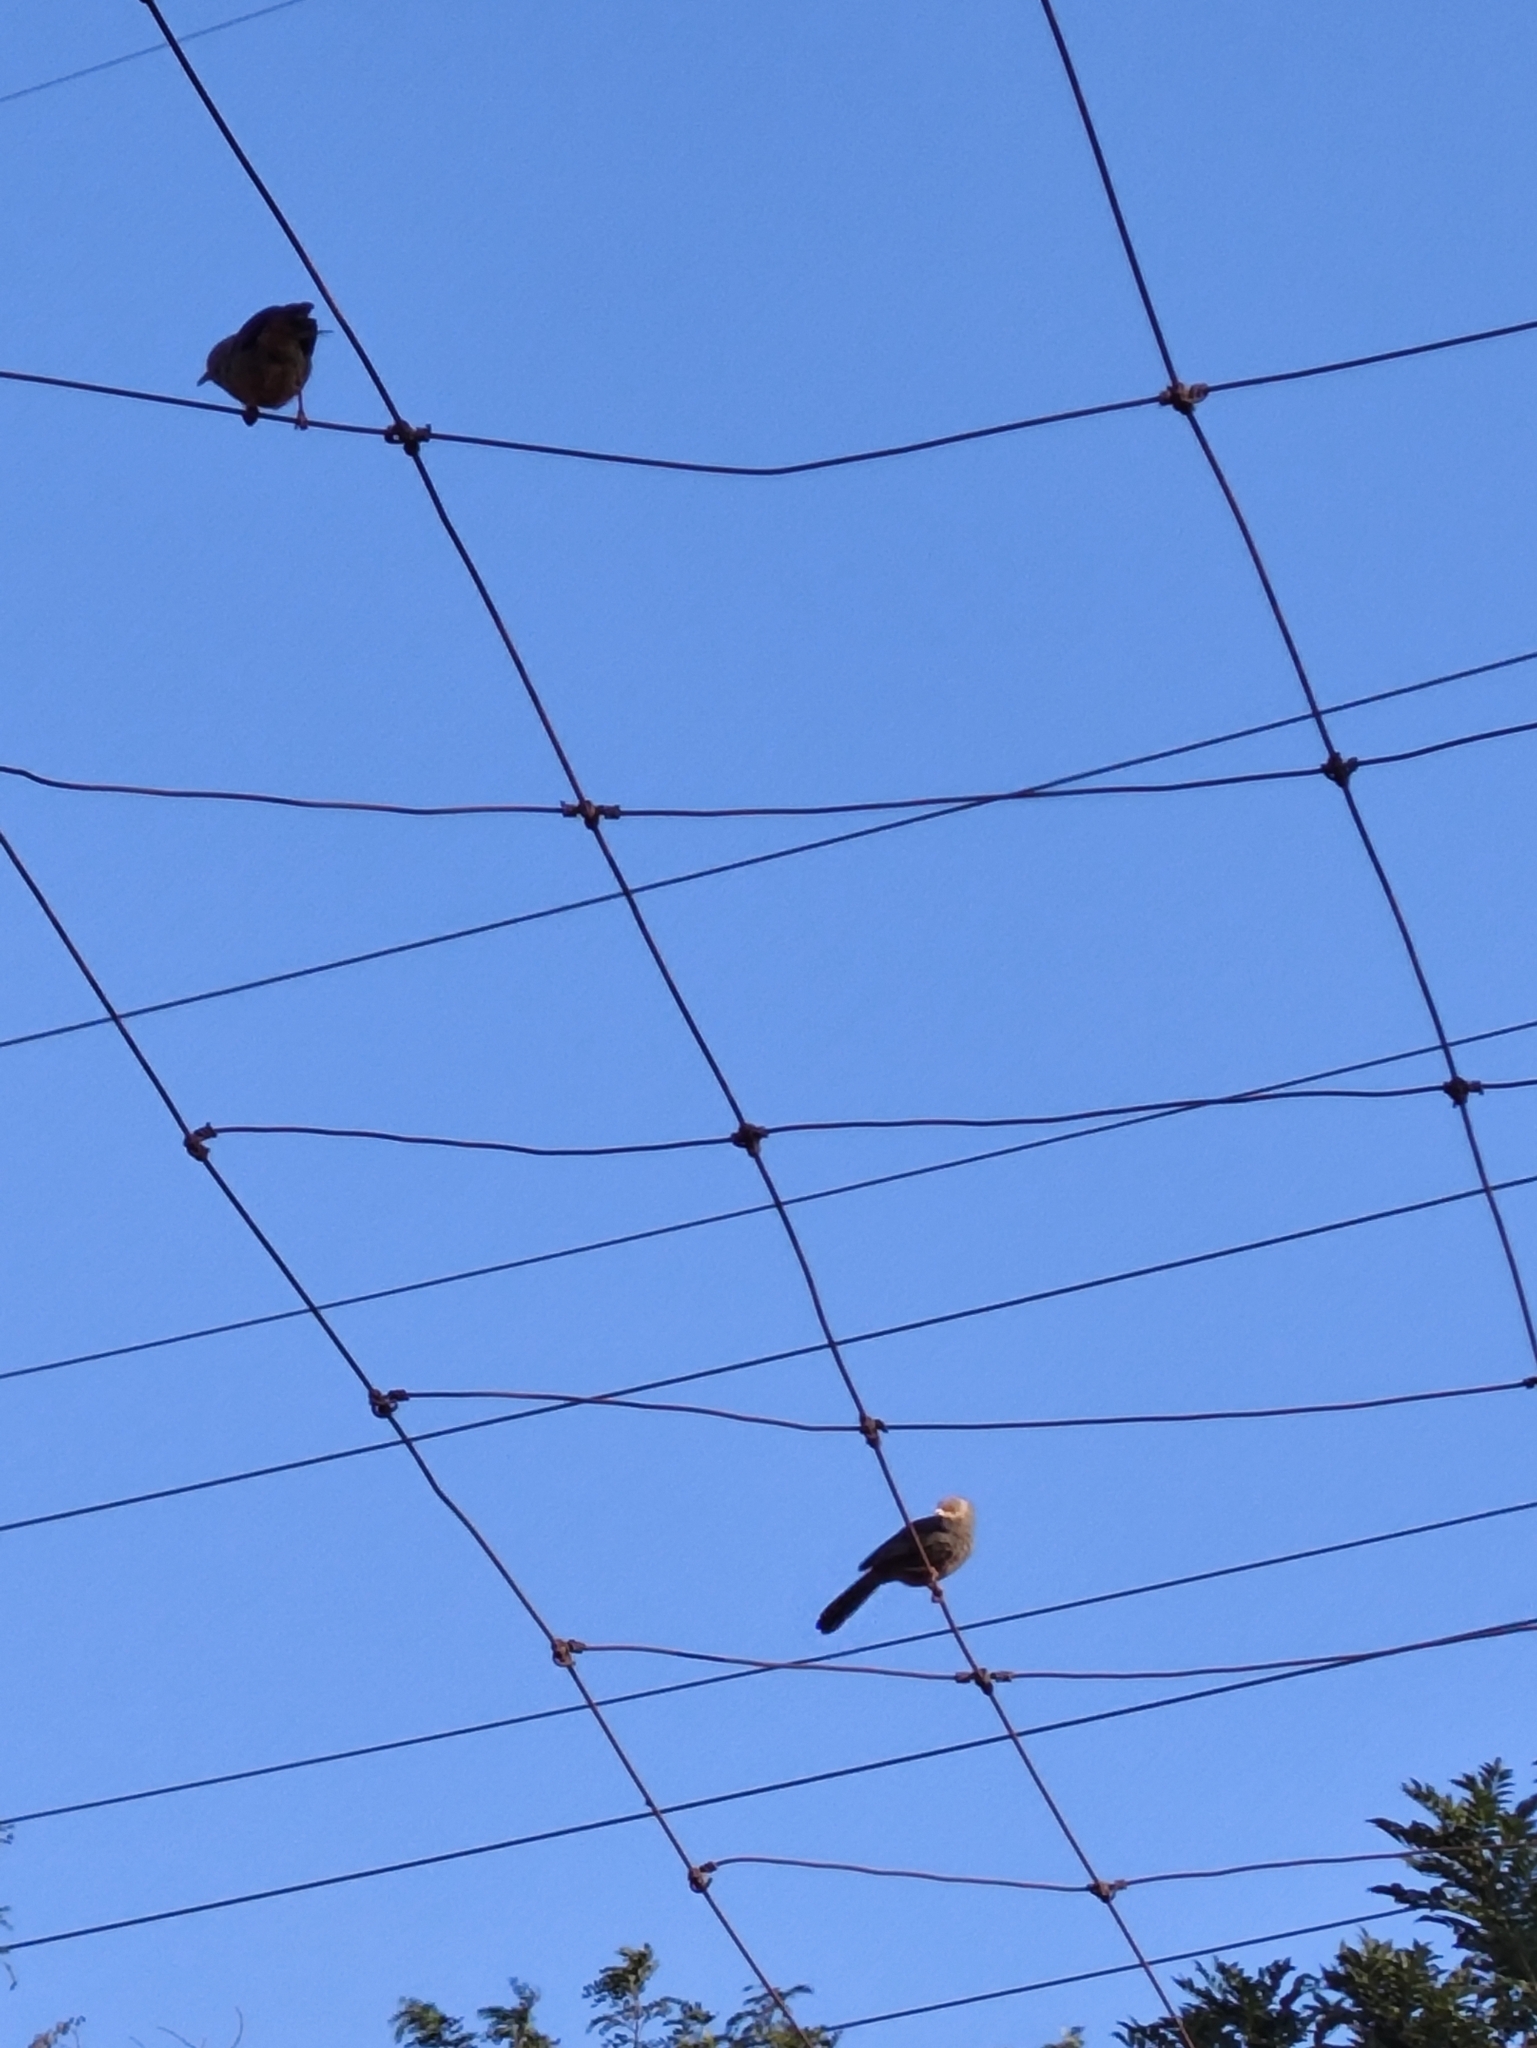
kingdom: Animalia
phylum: Chordata
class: Aves
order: Passeriformes
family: Leiothrichidae
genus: Turdoides
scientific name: Turdoides affinis
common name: Yellow-billed babbler
